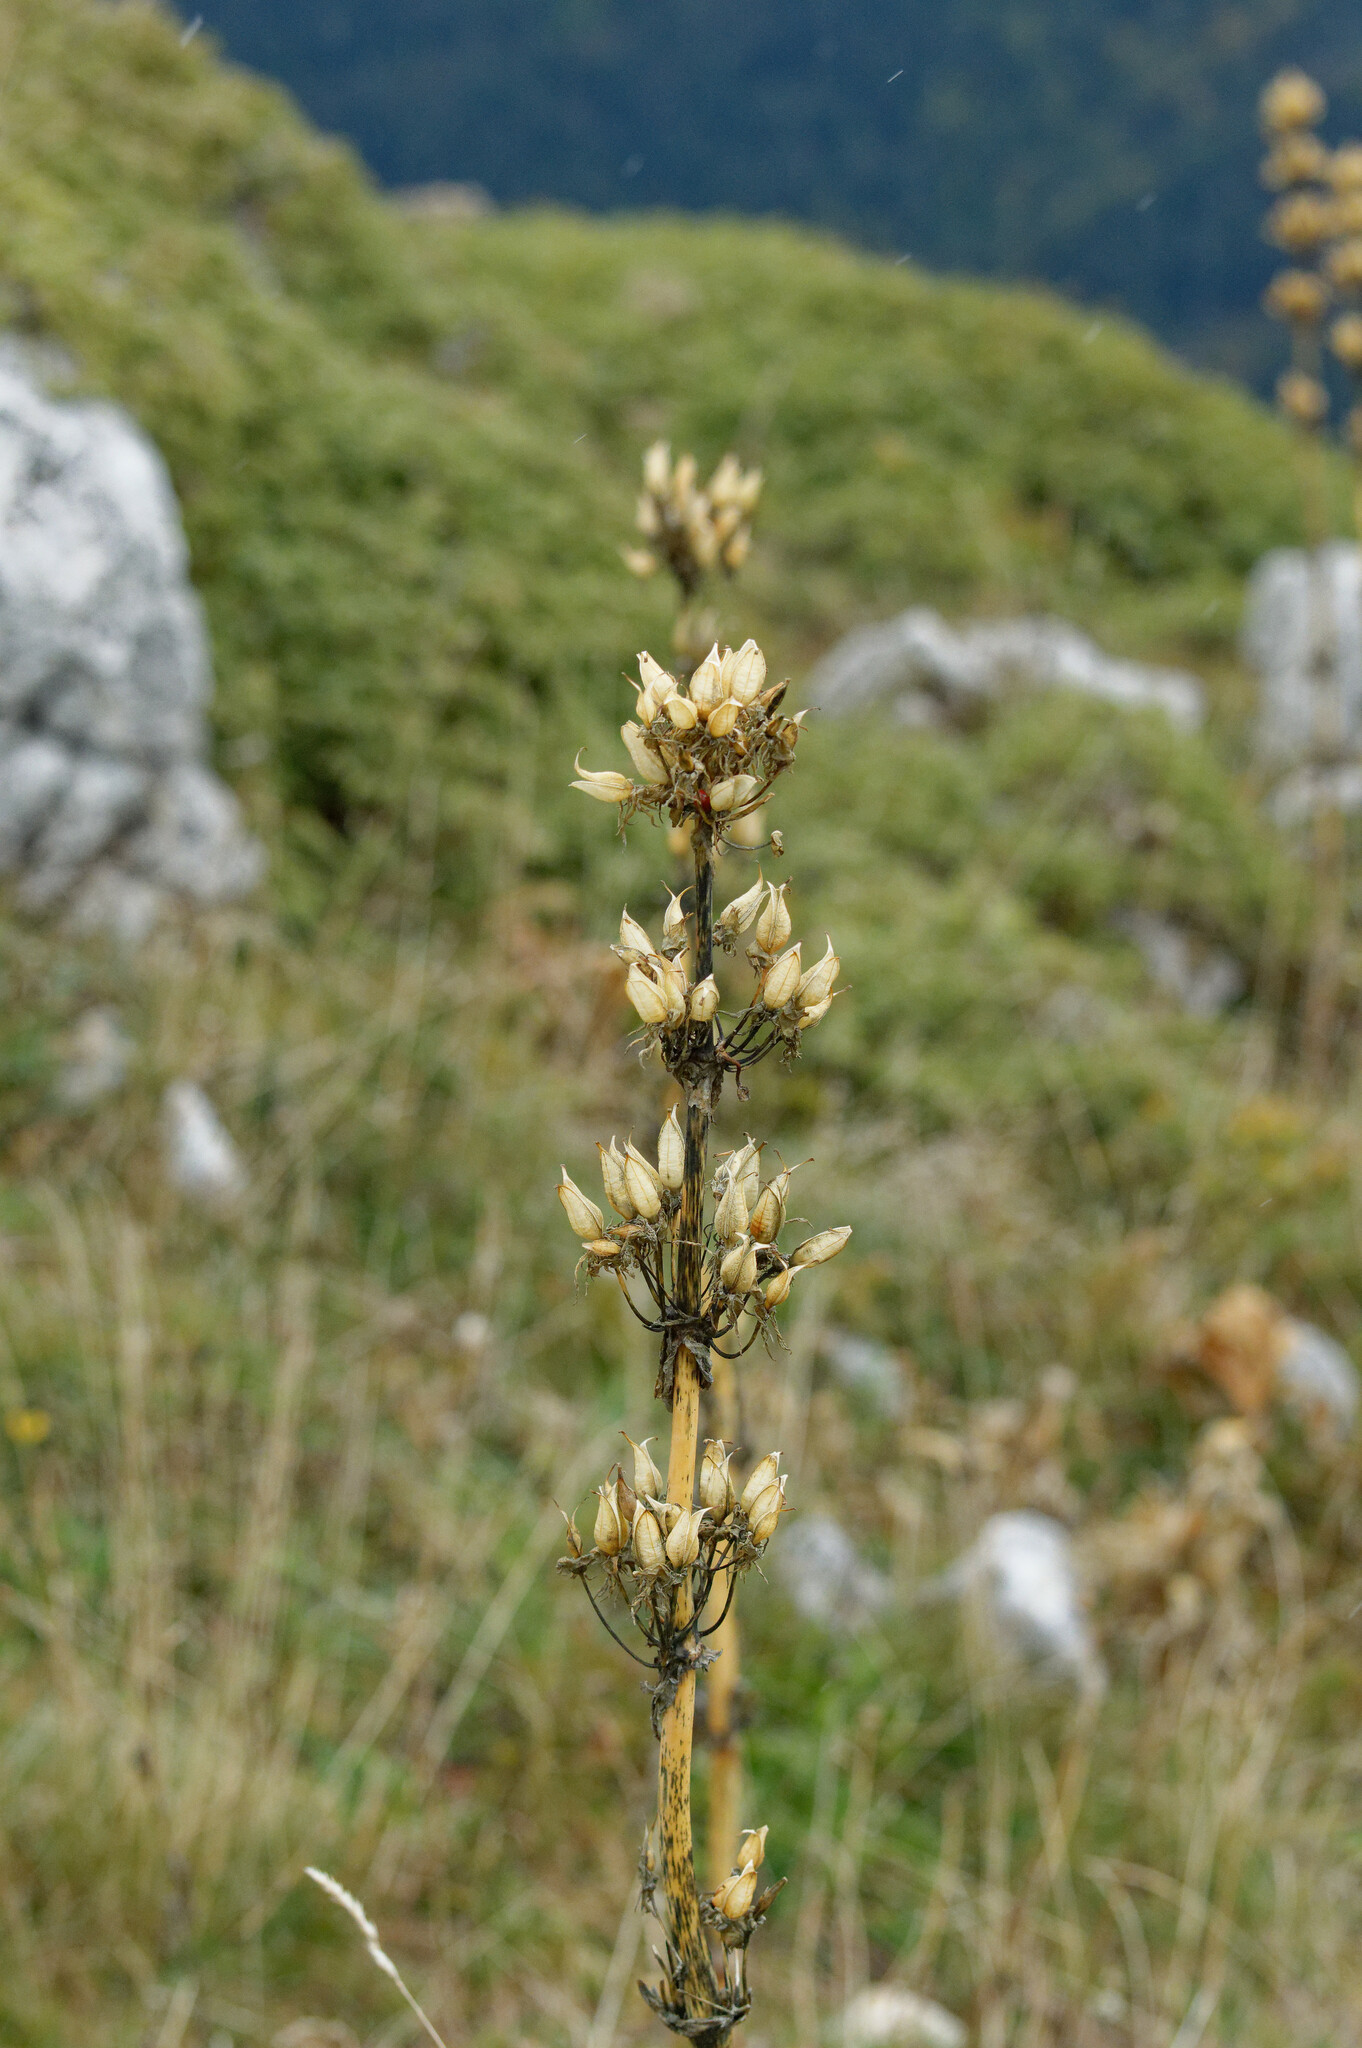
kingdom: Plantae
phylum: Tracheophyta
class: Magnoliopsida
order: Gentianales
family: Gentianaceae
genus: Gentiana
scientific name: Gentiana lutea
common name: Great yellow gentian
